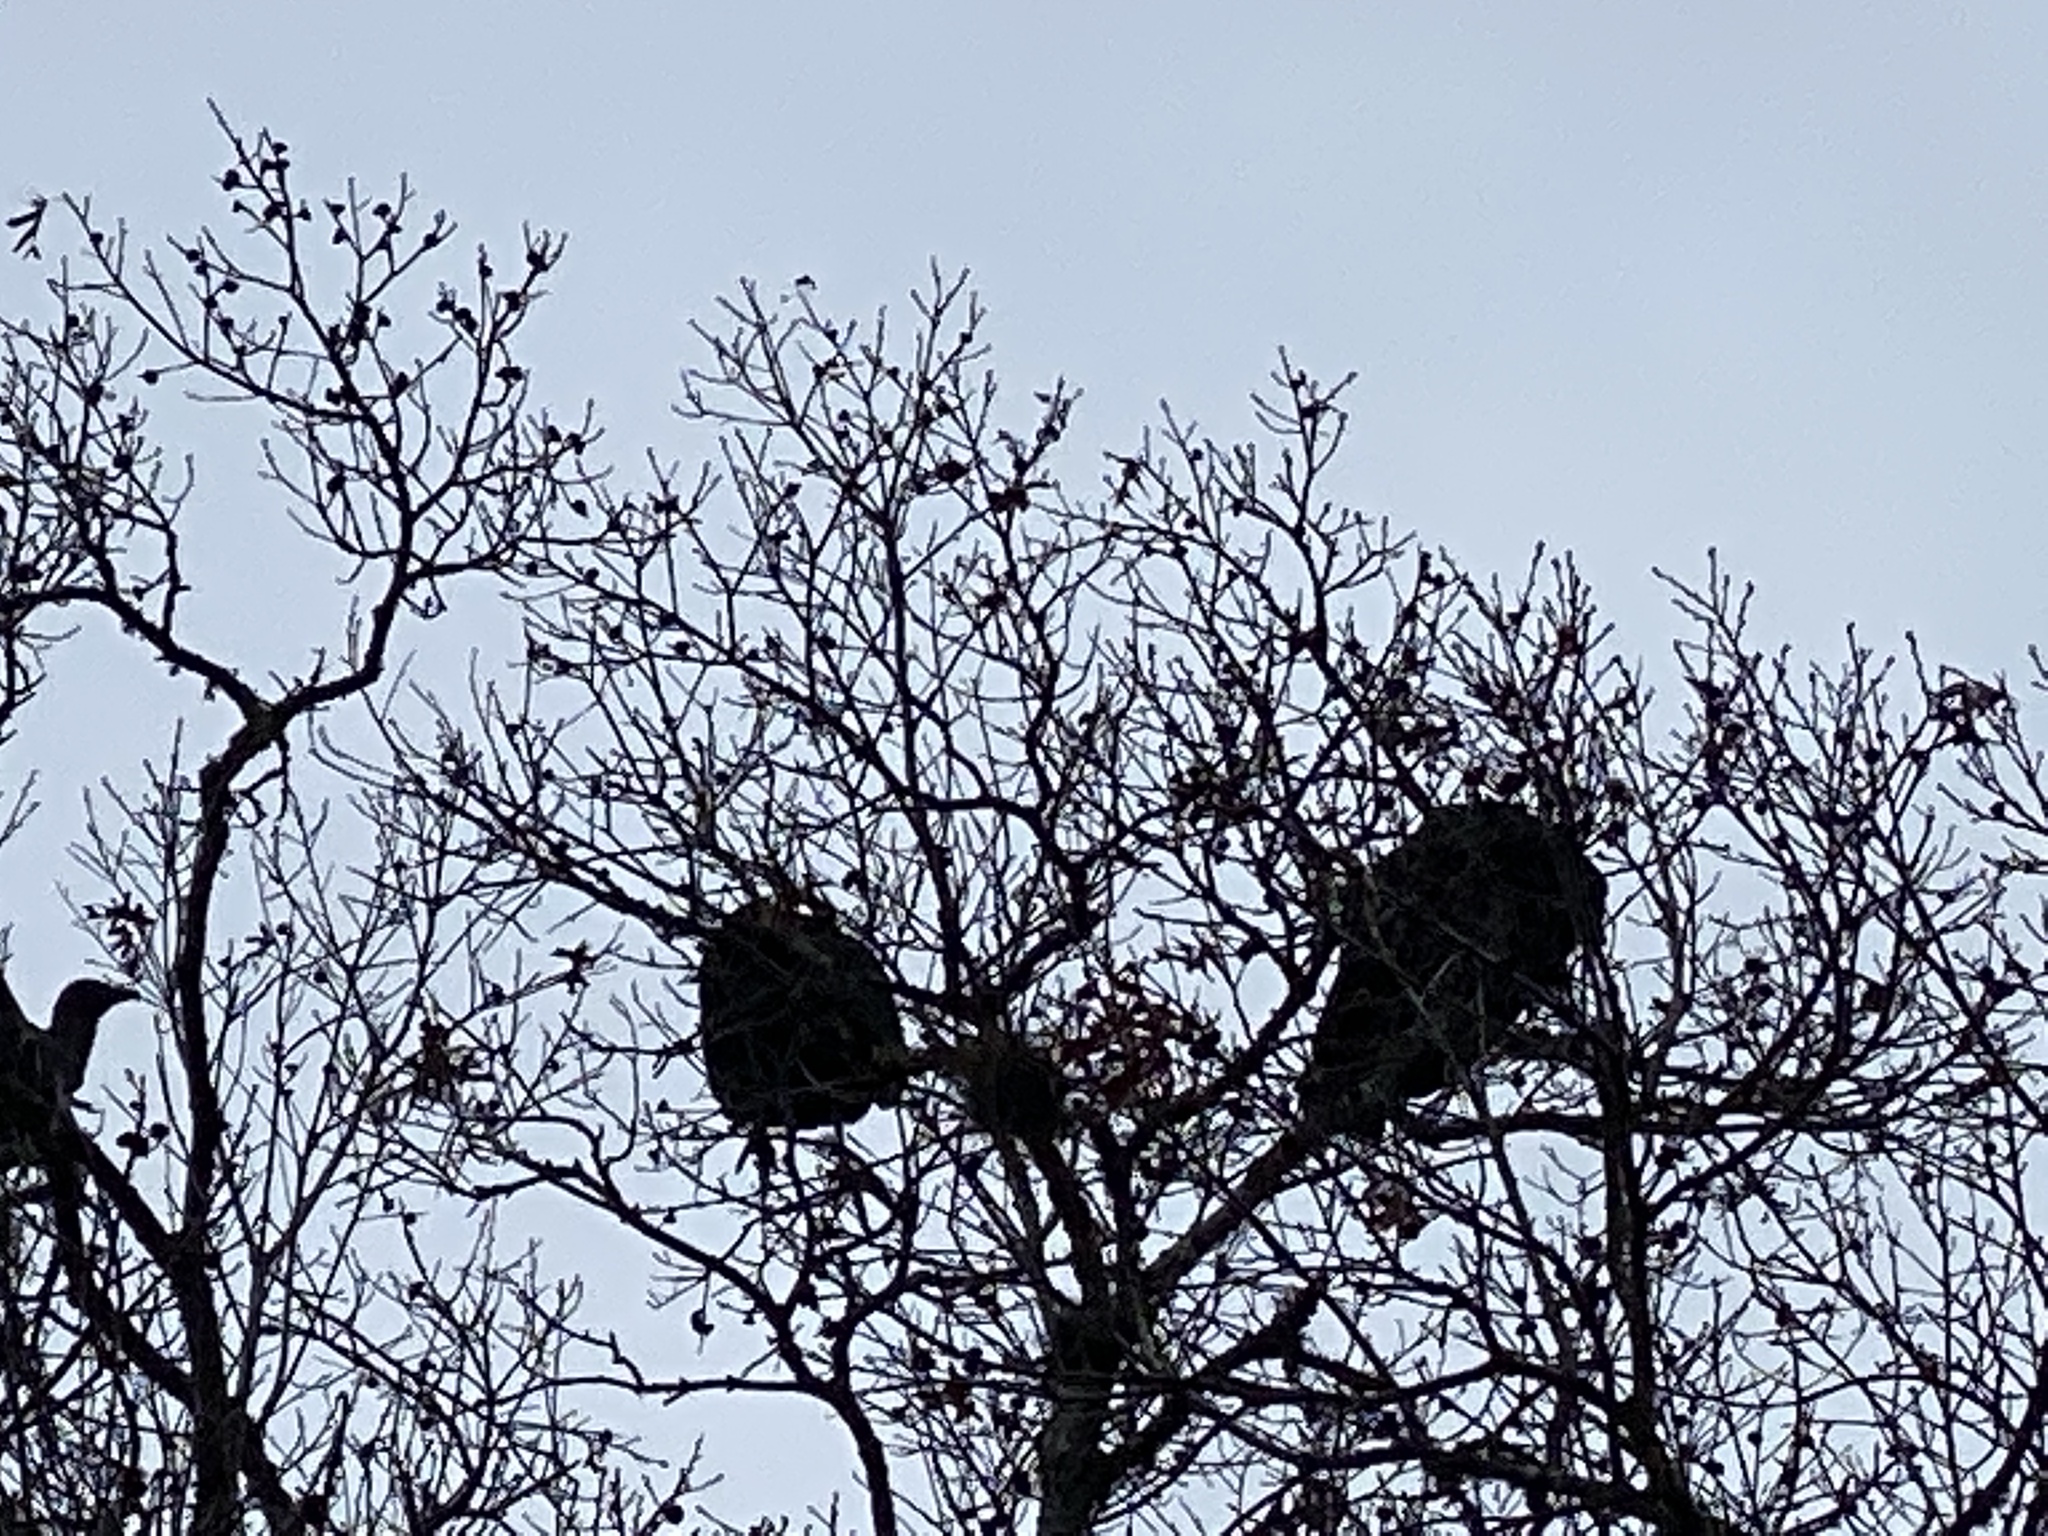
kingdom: Animalia
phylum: Chordata
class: Aves
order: Accipitriformes
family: Cathartidae
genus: Coragyps
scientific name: Coragyps atratus
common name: Black vulture
